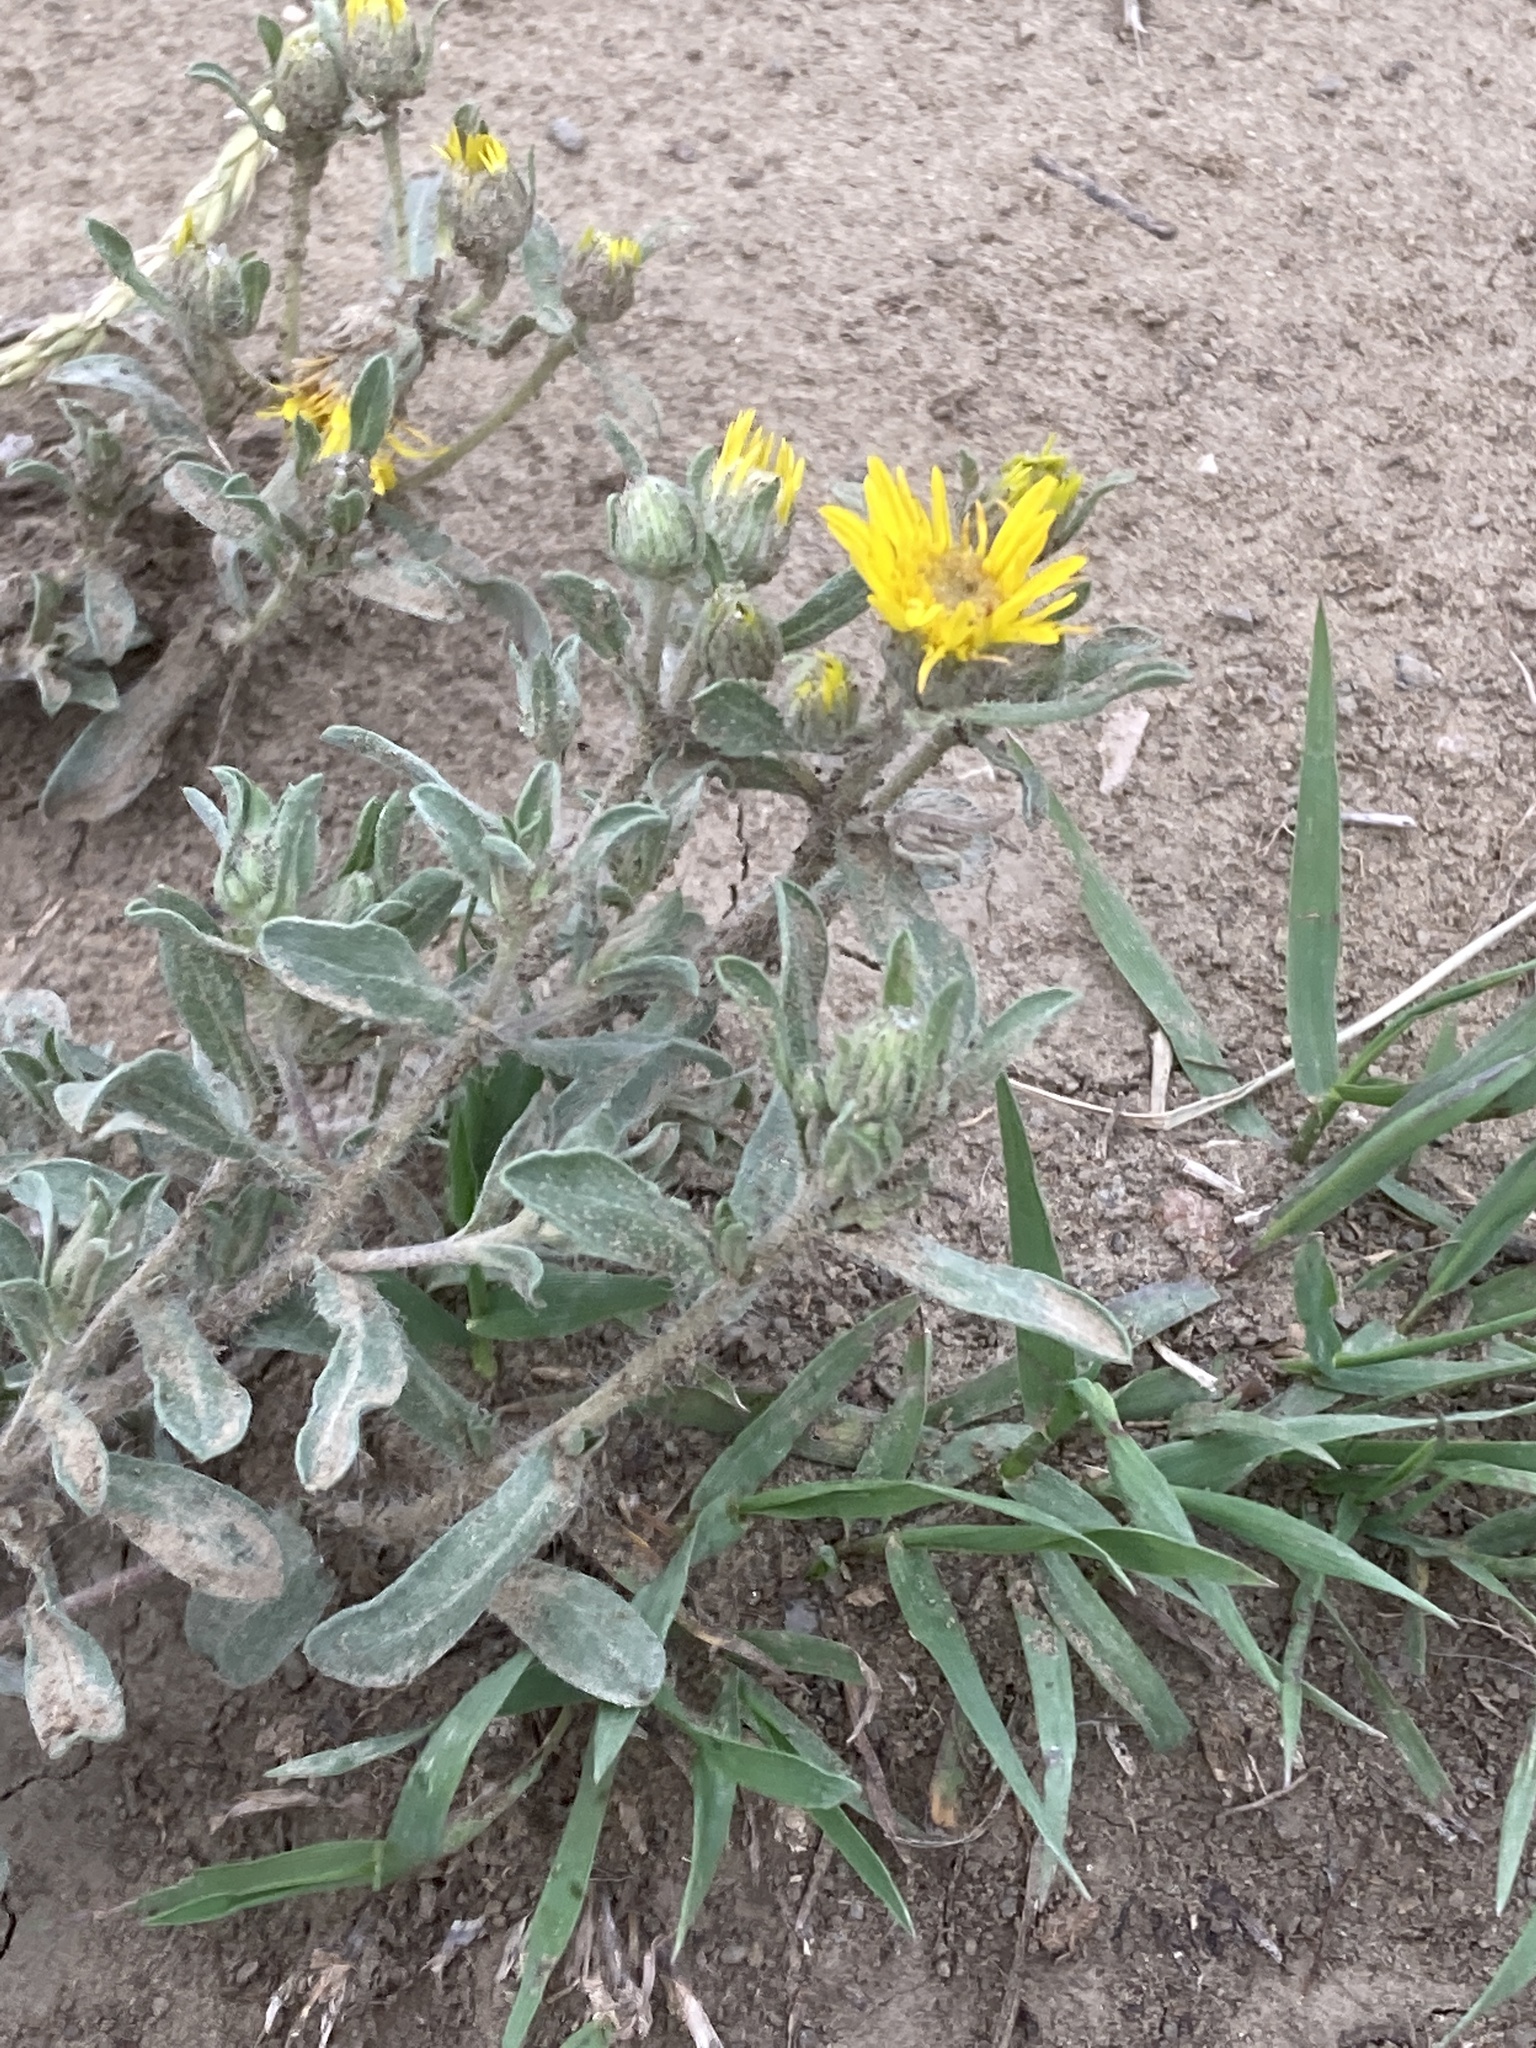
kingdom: Plantae
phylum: Tracheophyta
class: Magnoliopsida
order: Asterales
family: Asteraceae
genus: Heterotheca
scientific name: Heterotheca villosa
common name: Hairy false goldenaster
